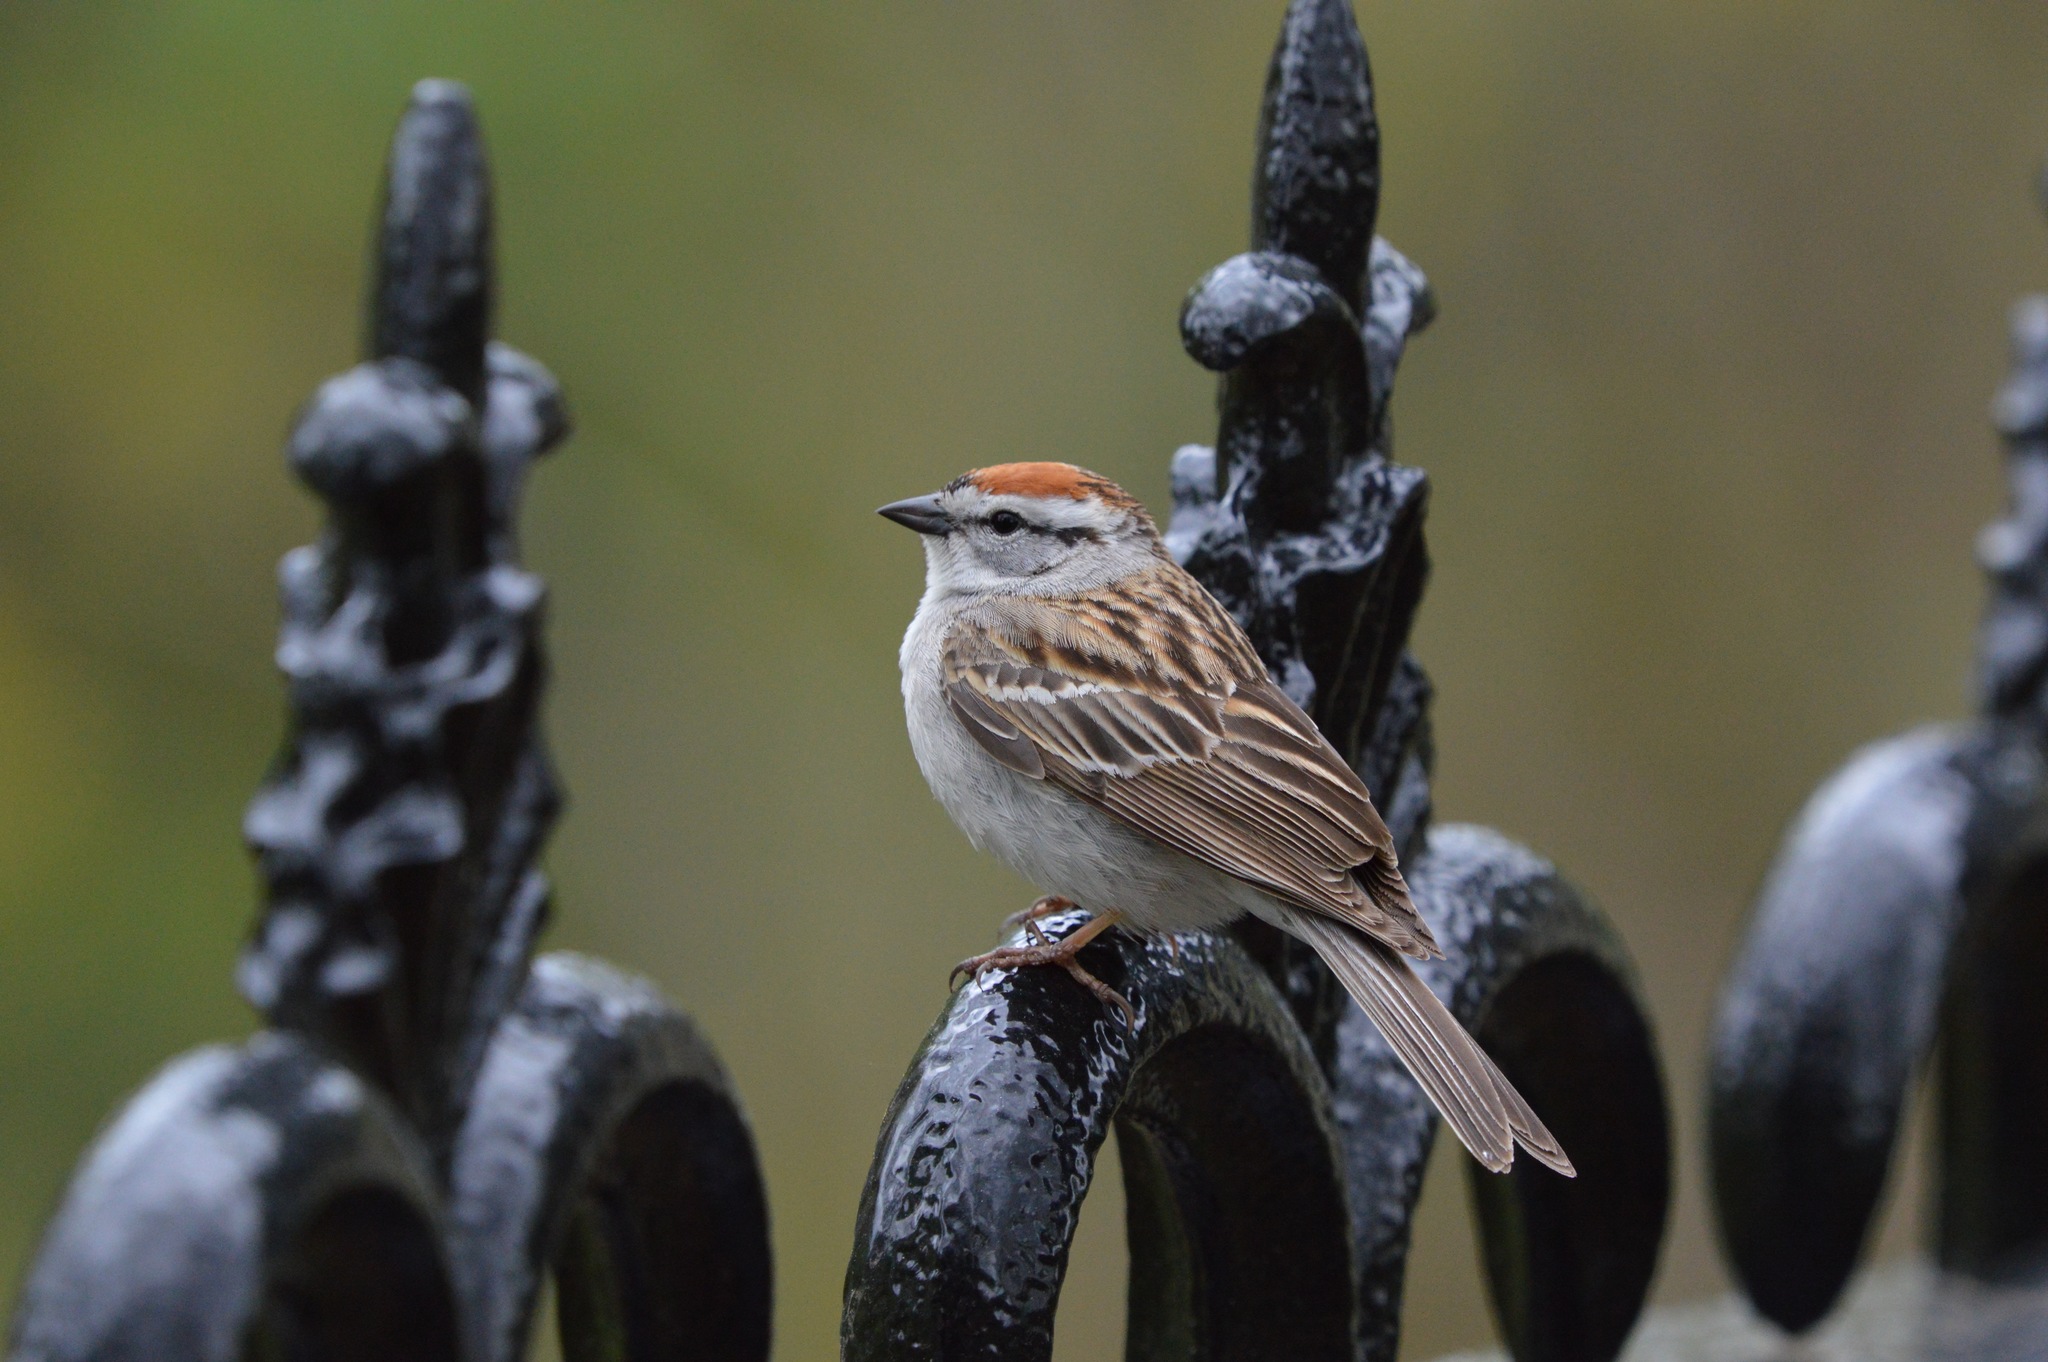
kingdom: Animalia
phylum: Chordata
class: Aves
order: Passeriformes
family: Passerellidae
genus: Spizella
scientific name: Spizella passerina
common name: Chipping sparrow
